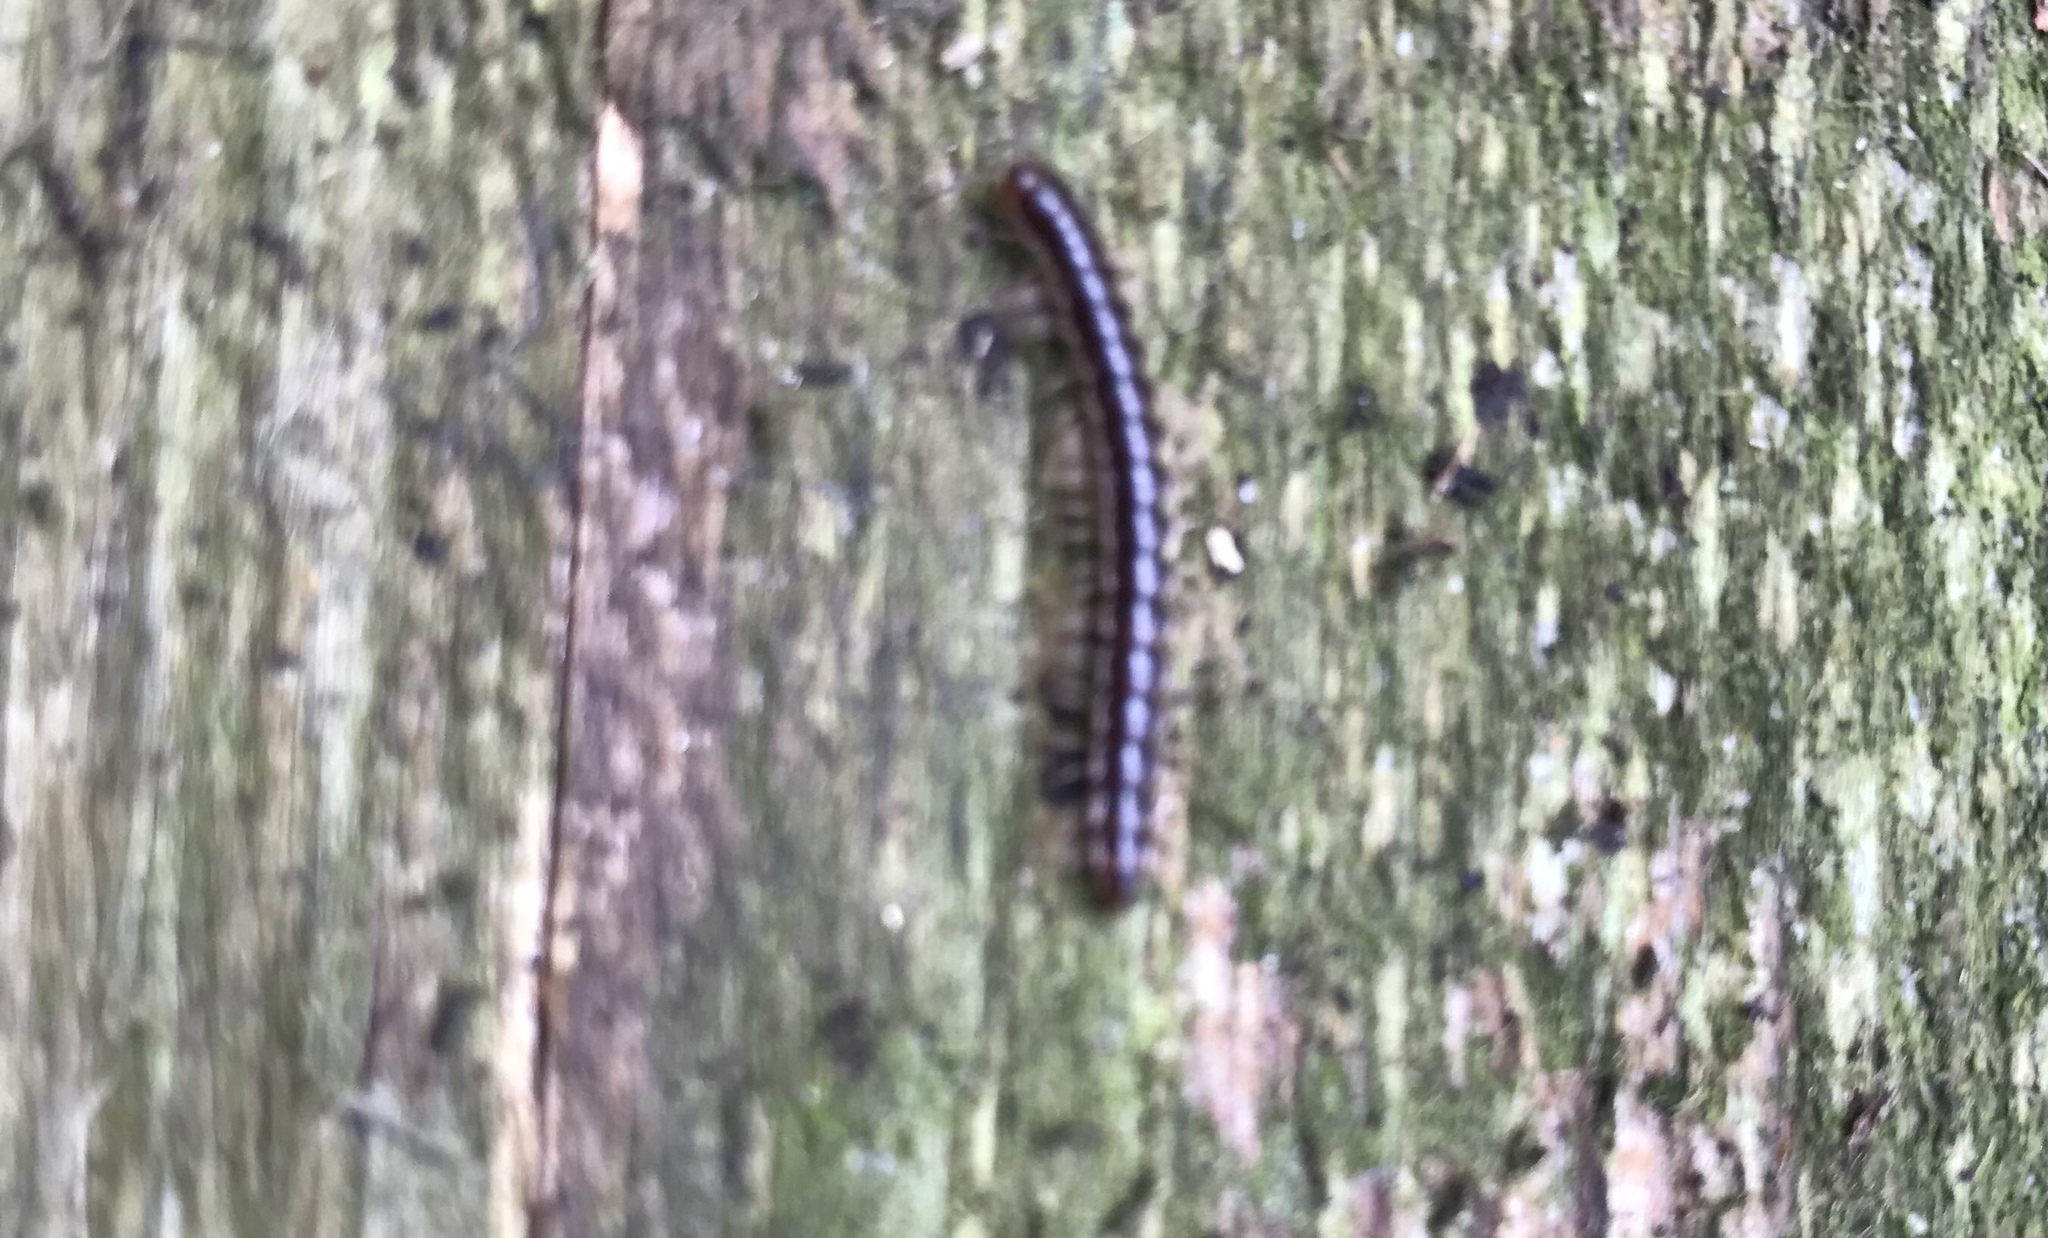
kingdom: Animalia
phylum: Arthropoda
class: Diplopoda
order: Polydesmida
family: Paradoxosomatidae
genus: Oxidus
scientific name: Oxidus gracilis
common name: Greenhouse millipede
